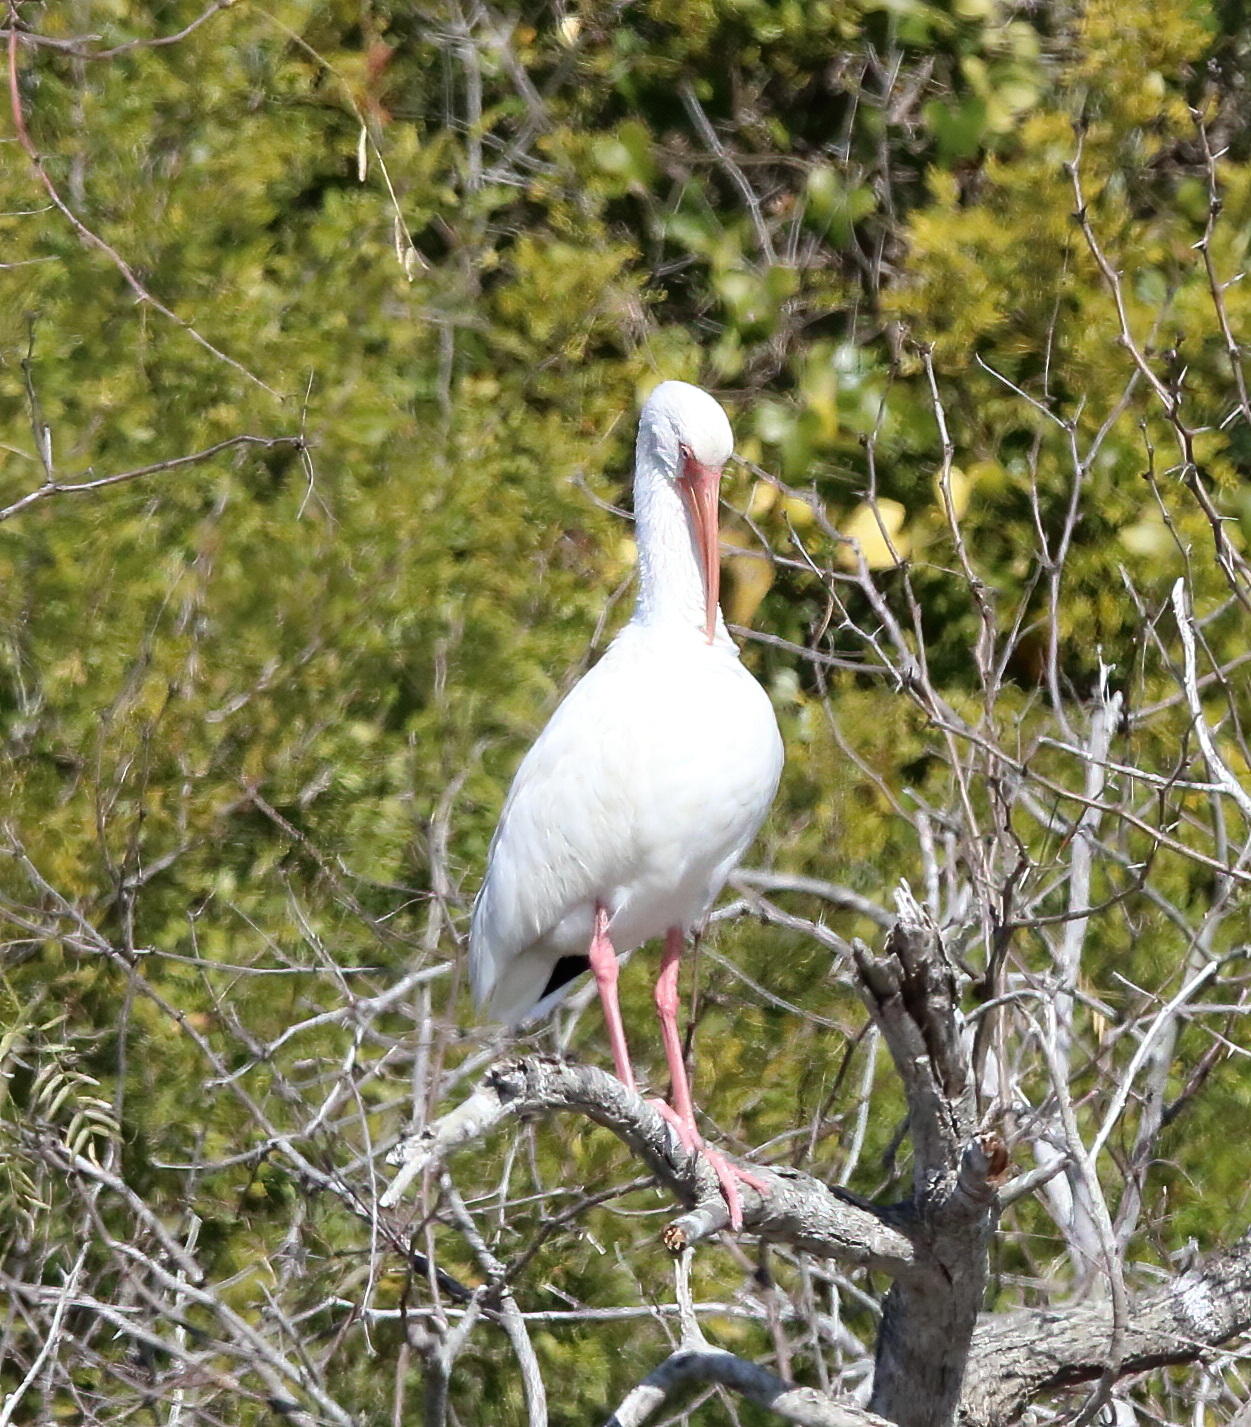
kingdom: Animalia
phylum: Chordata
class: Aves
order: Pelecaniformes
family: Threskiornithidae
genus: Eudocimus
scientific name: Eudocimus albus
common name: White ibis
